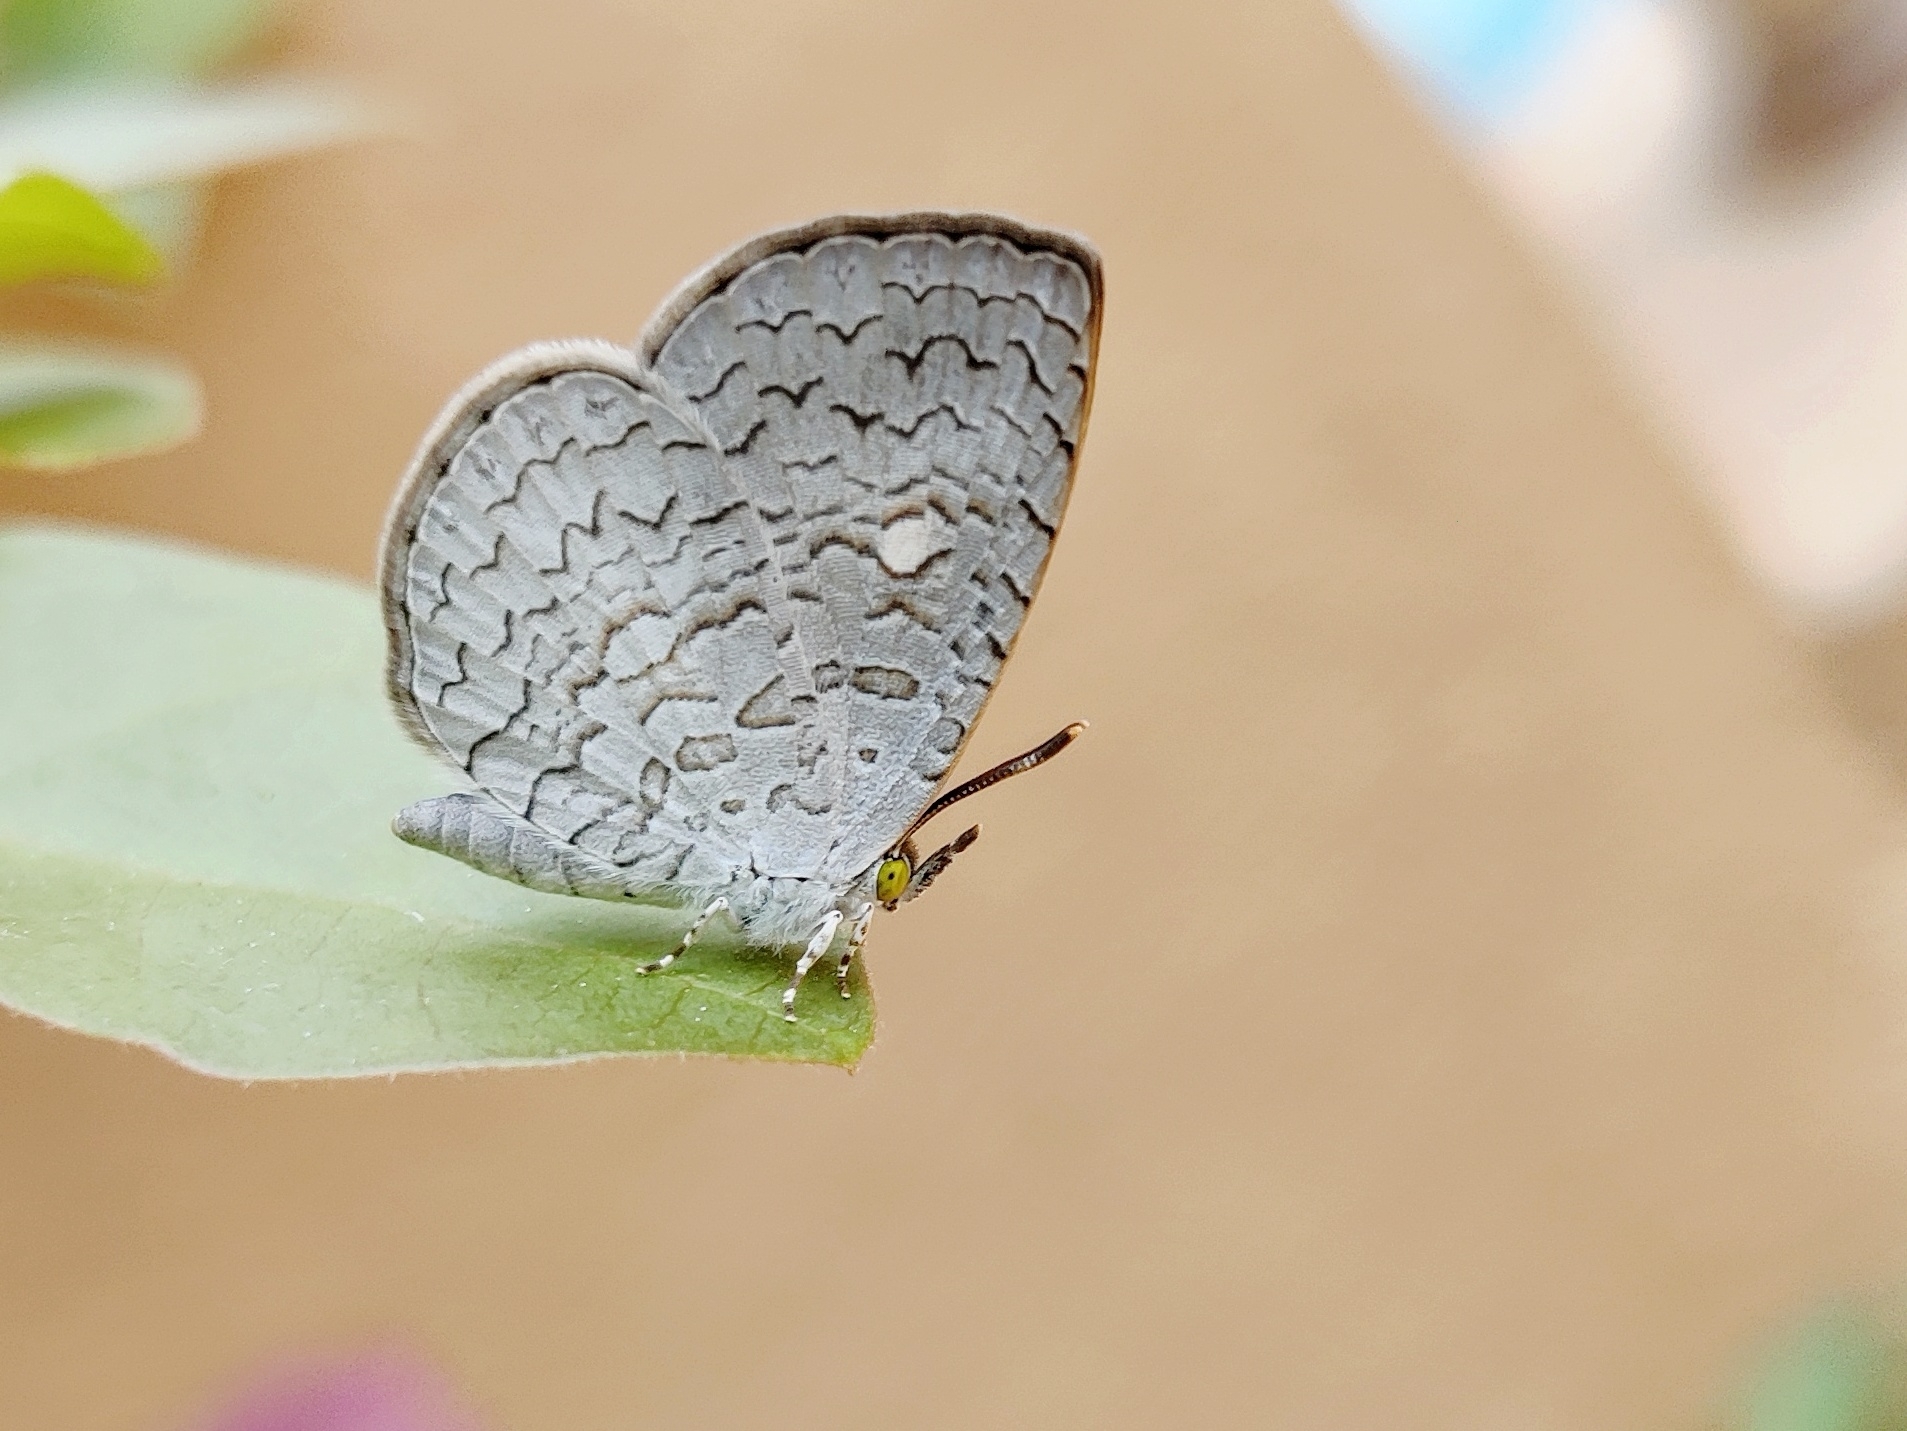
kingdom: Animalia
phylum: Arthropoda
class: Insecta
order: Lepidoptera
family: Lycaenidae
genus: Spalgis
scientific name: Spalgis epius
